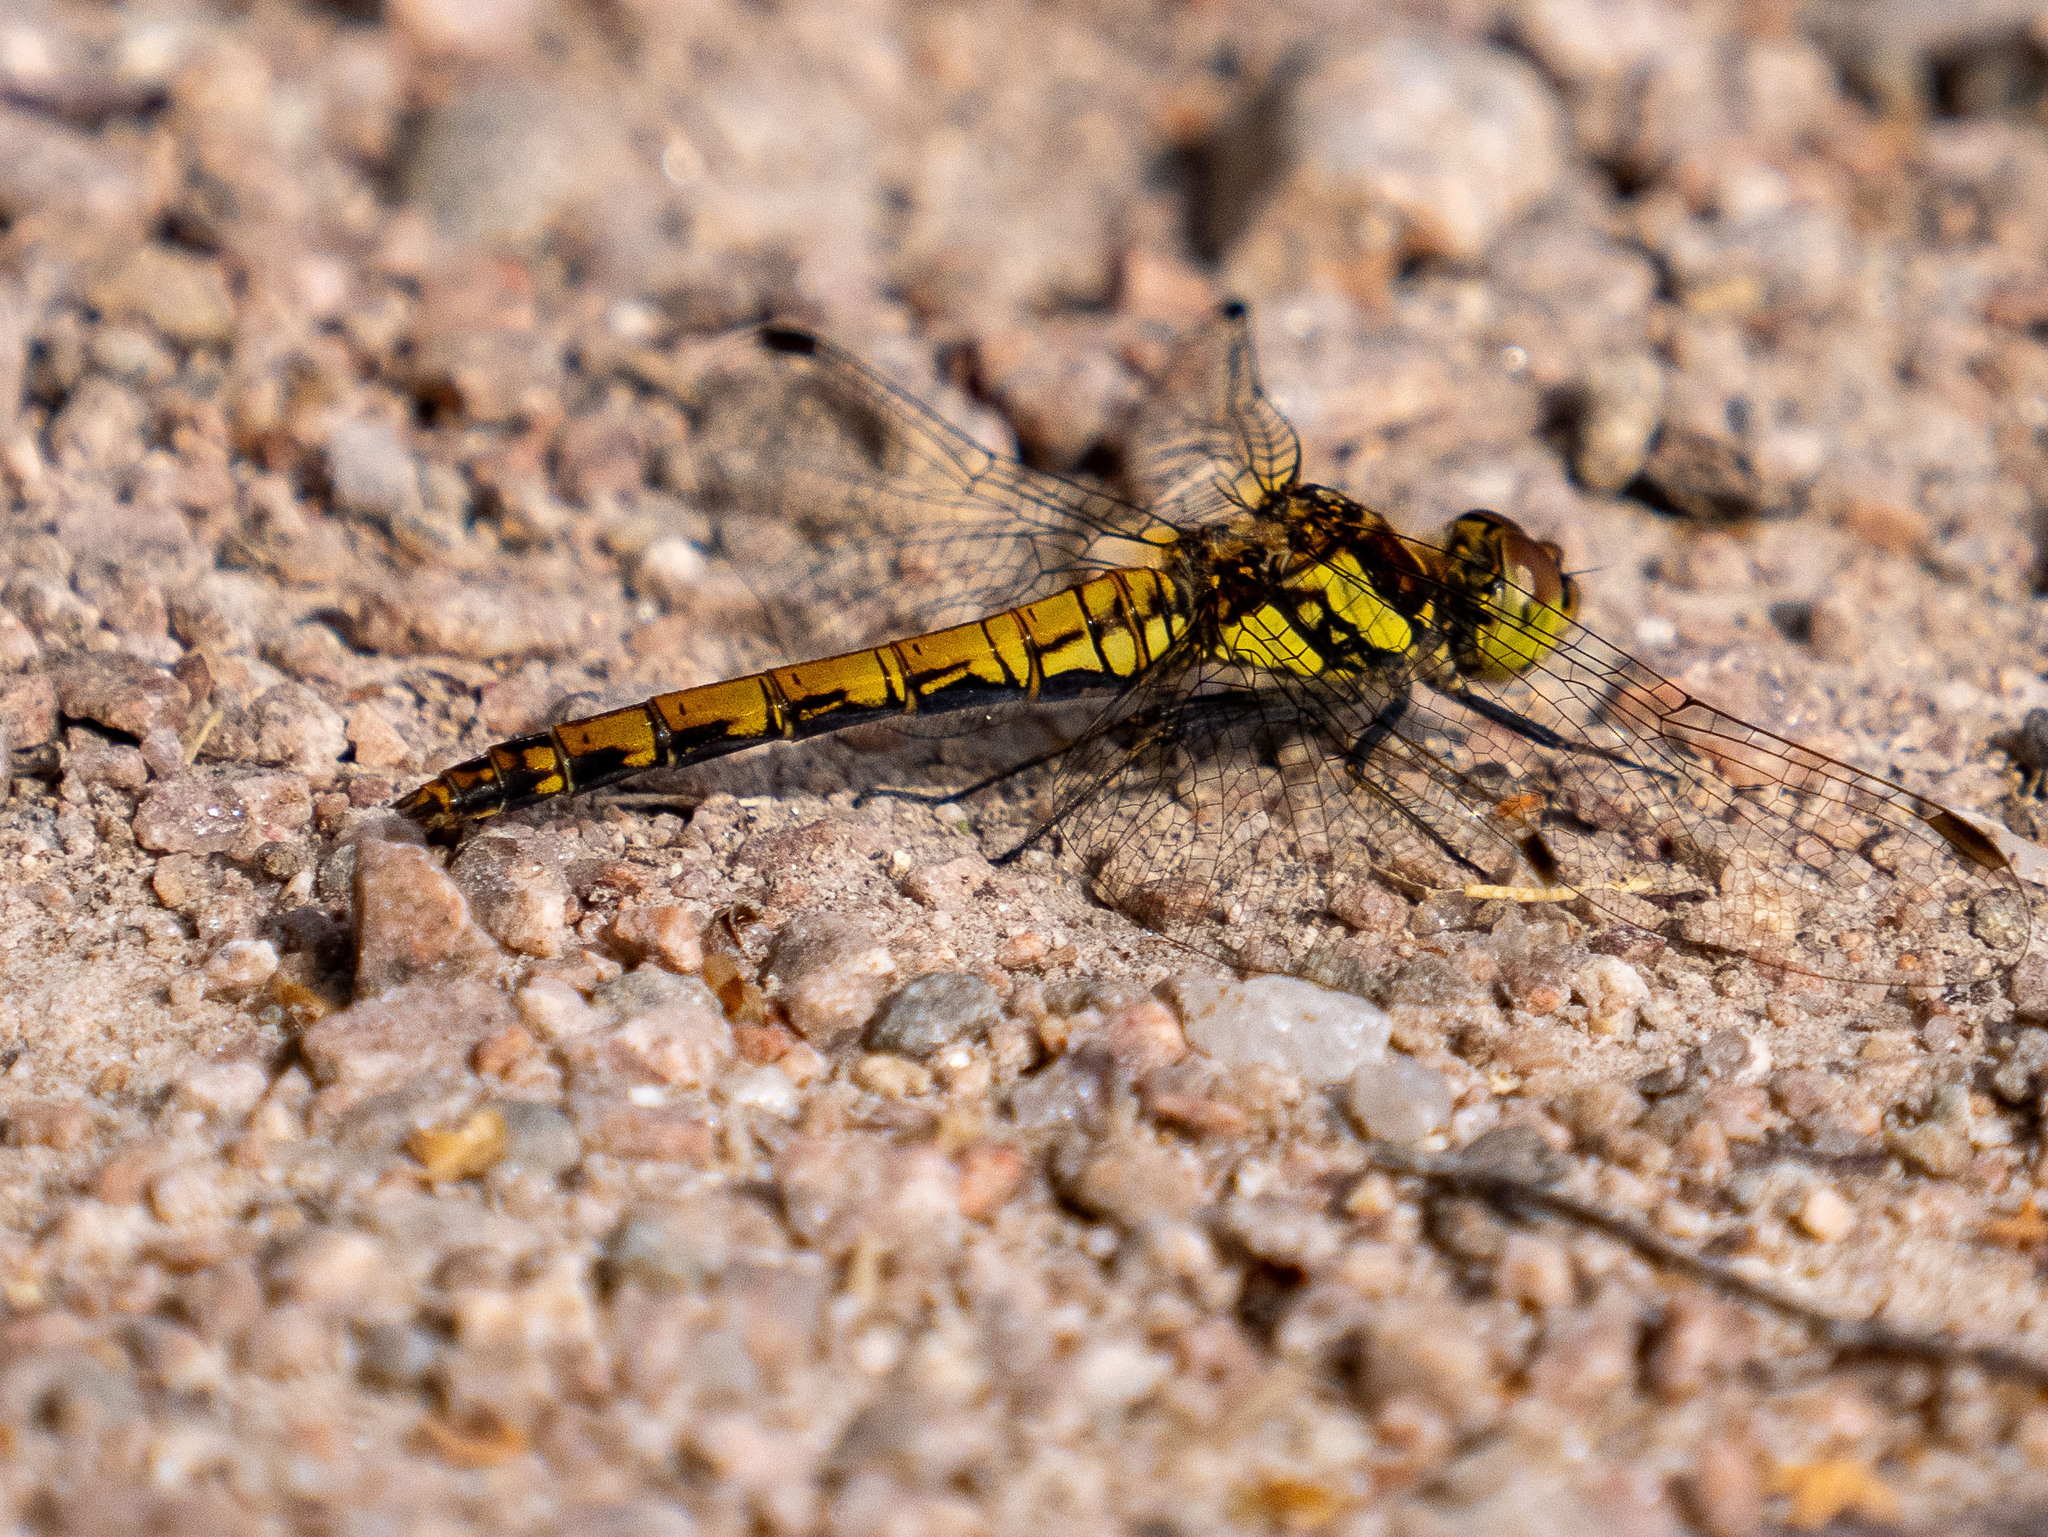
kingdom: Animalia
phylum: Arthropoda
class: Insecta
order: Odonata
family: Libellulidae
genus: Sympetrum
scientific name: Sympetrum striolatum
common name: Common darter
